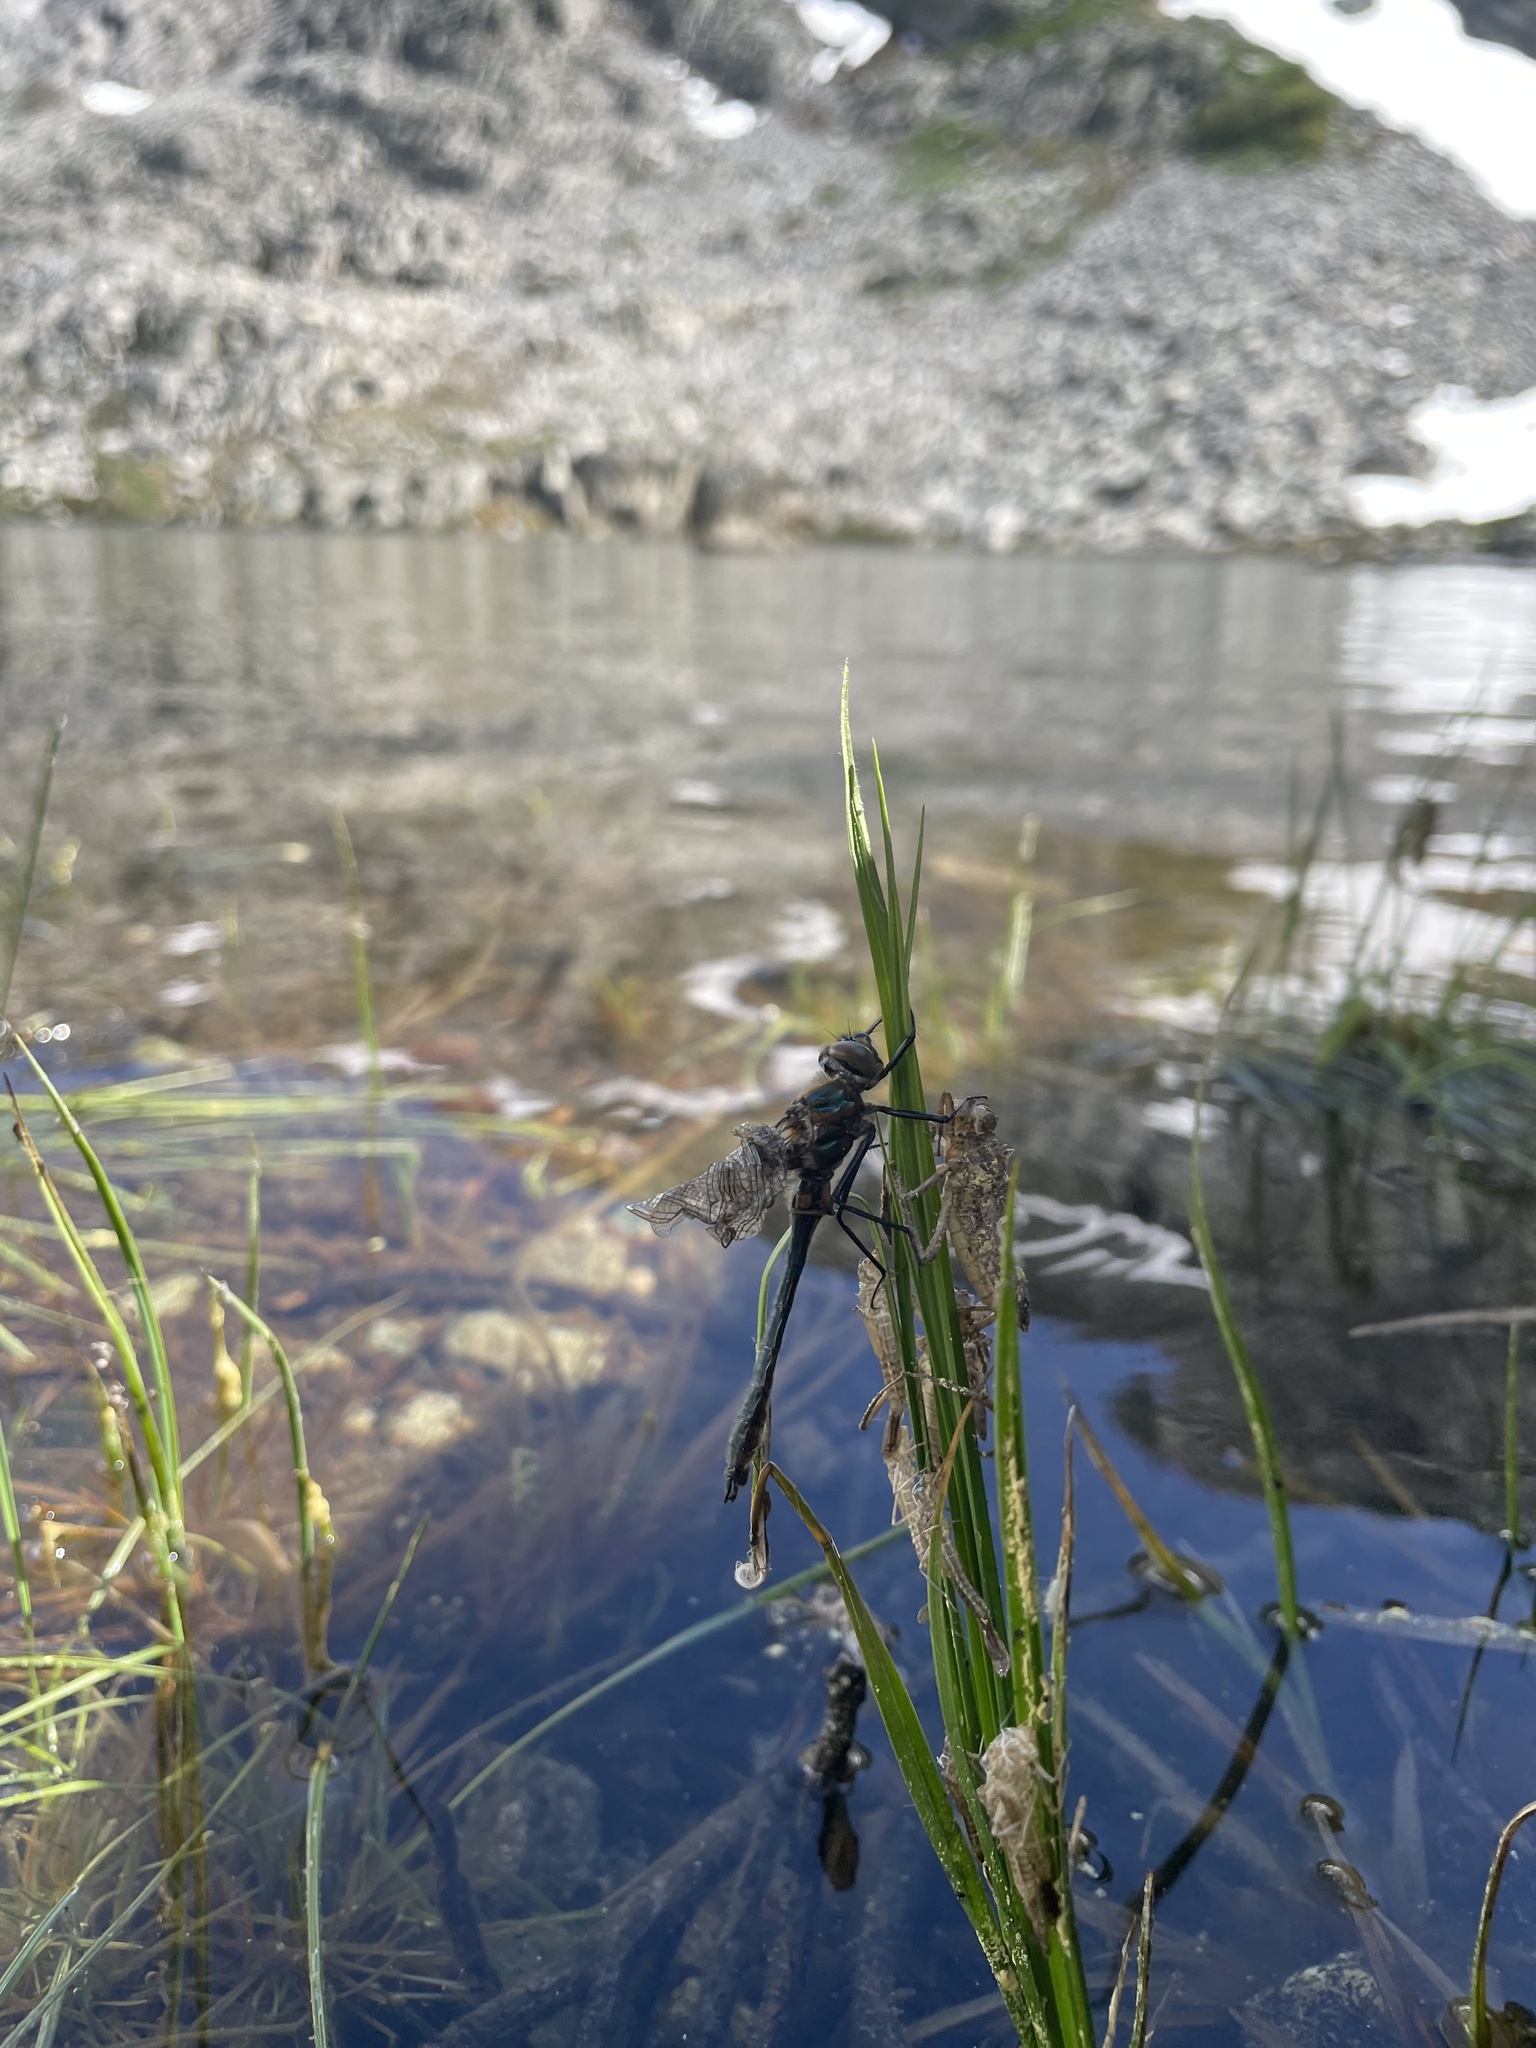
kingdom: Animalia
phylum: Arthropoda
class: Insecta
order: Odonata
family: Corduliidae
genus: Cordulia
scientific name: Cordulia shurtleffii
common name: American emerald
